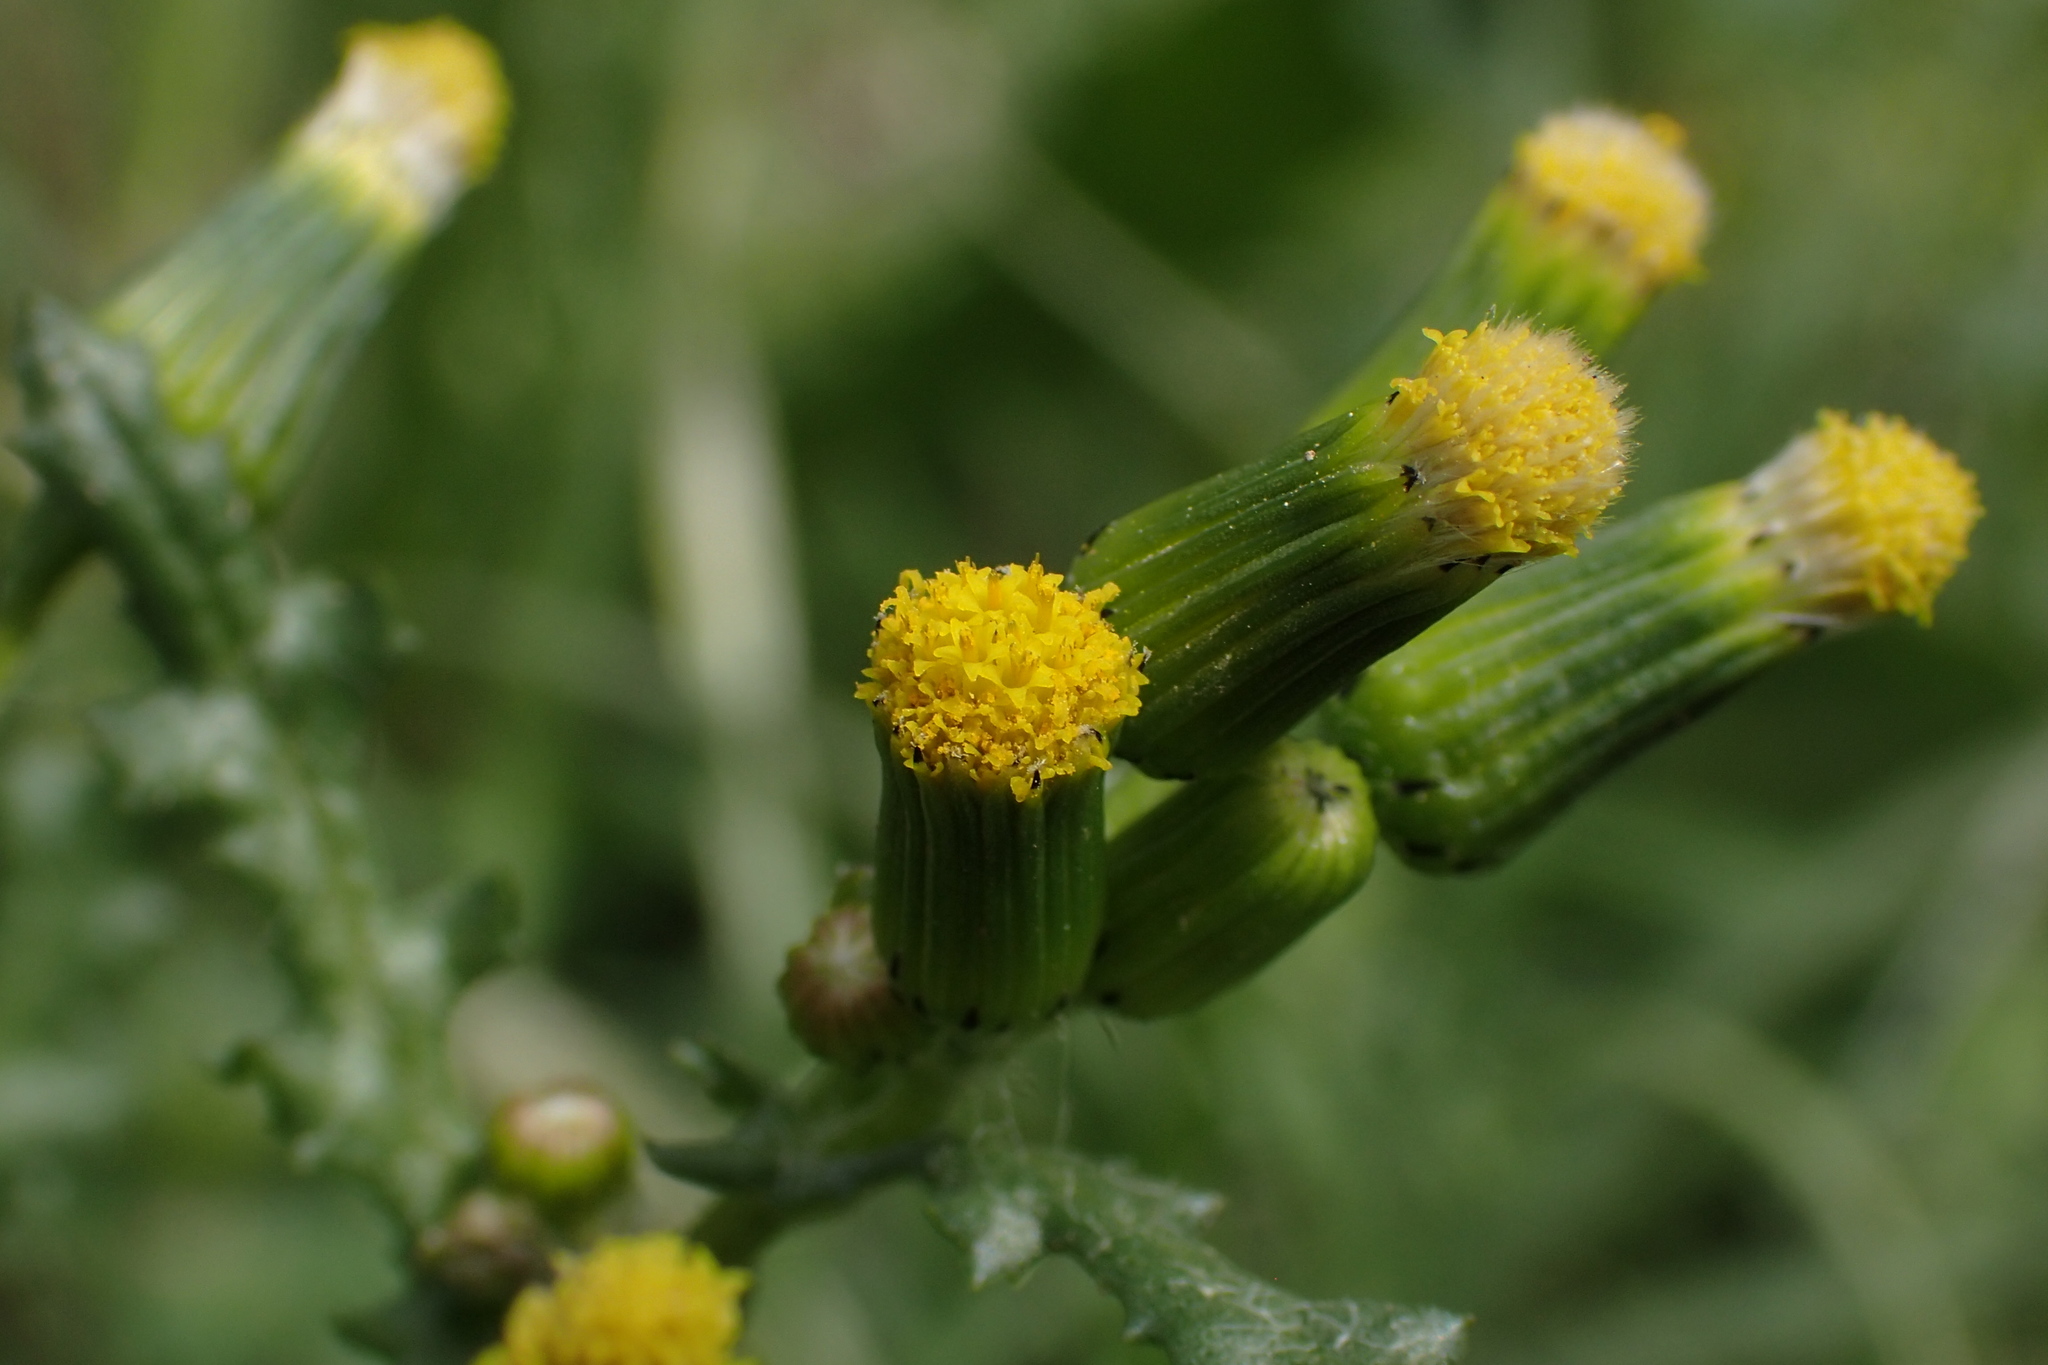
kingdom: Plantae
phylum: Tracheophyta
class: Magnoliopsida
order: Asterales
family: Asteraceae
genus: Senecio
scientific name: Senecio vulgaris
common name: Old-man-in-the-spring
